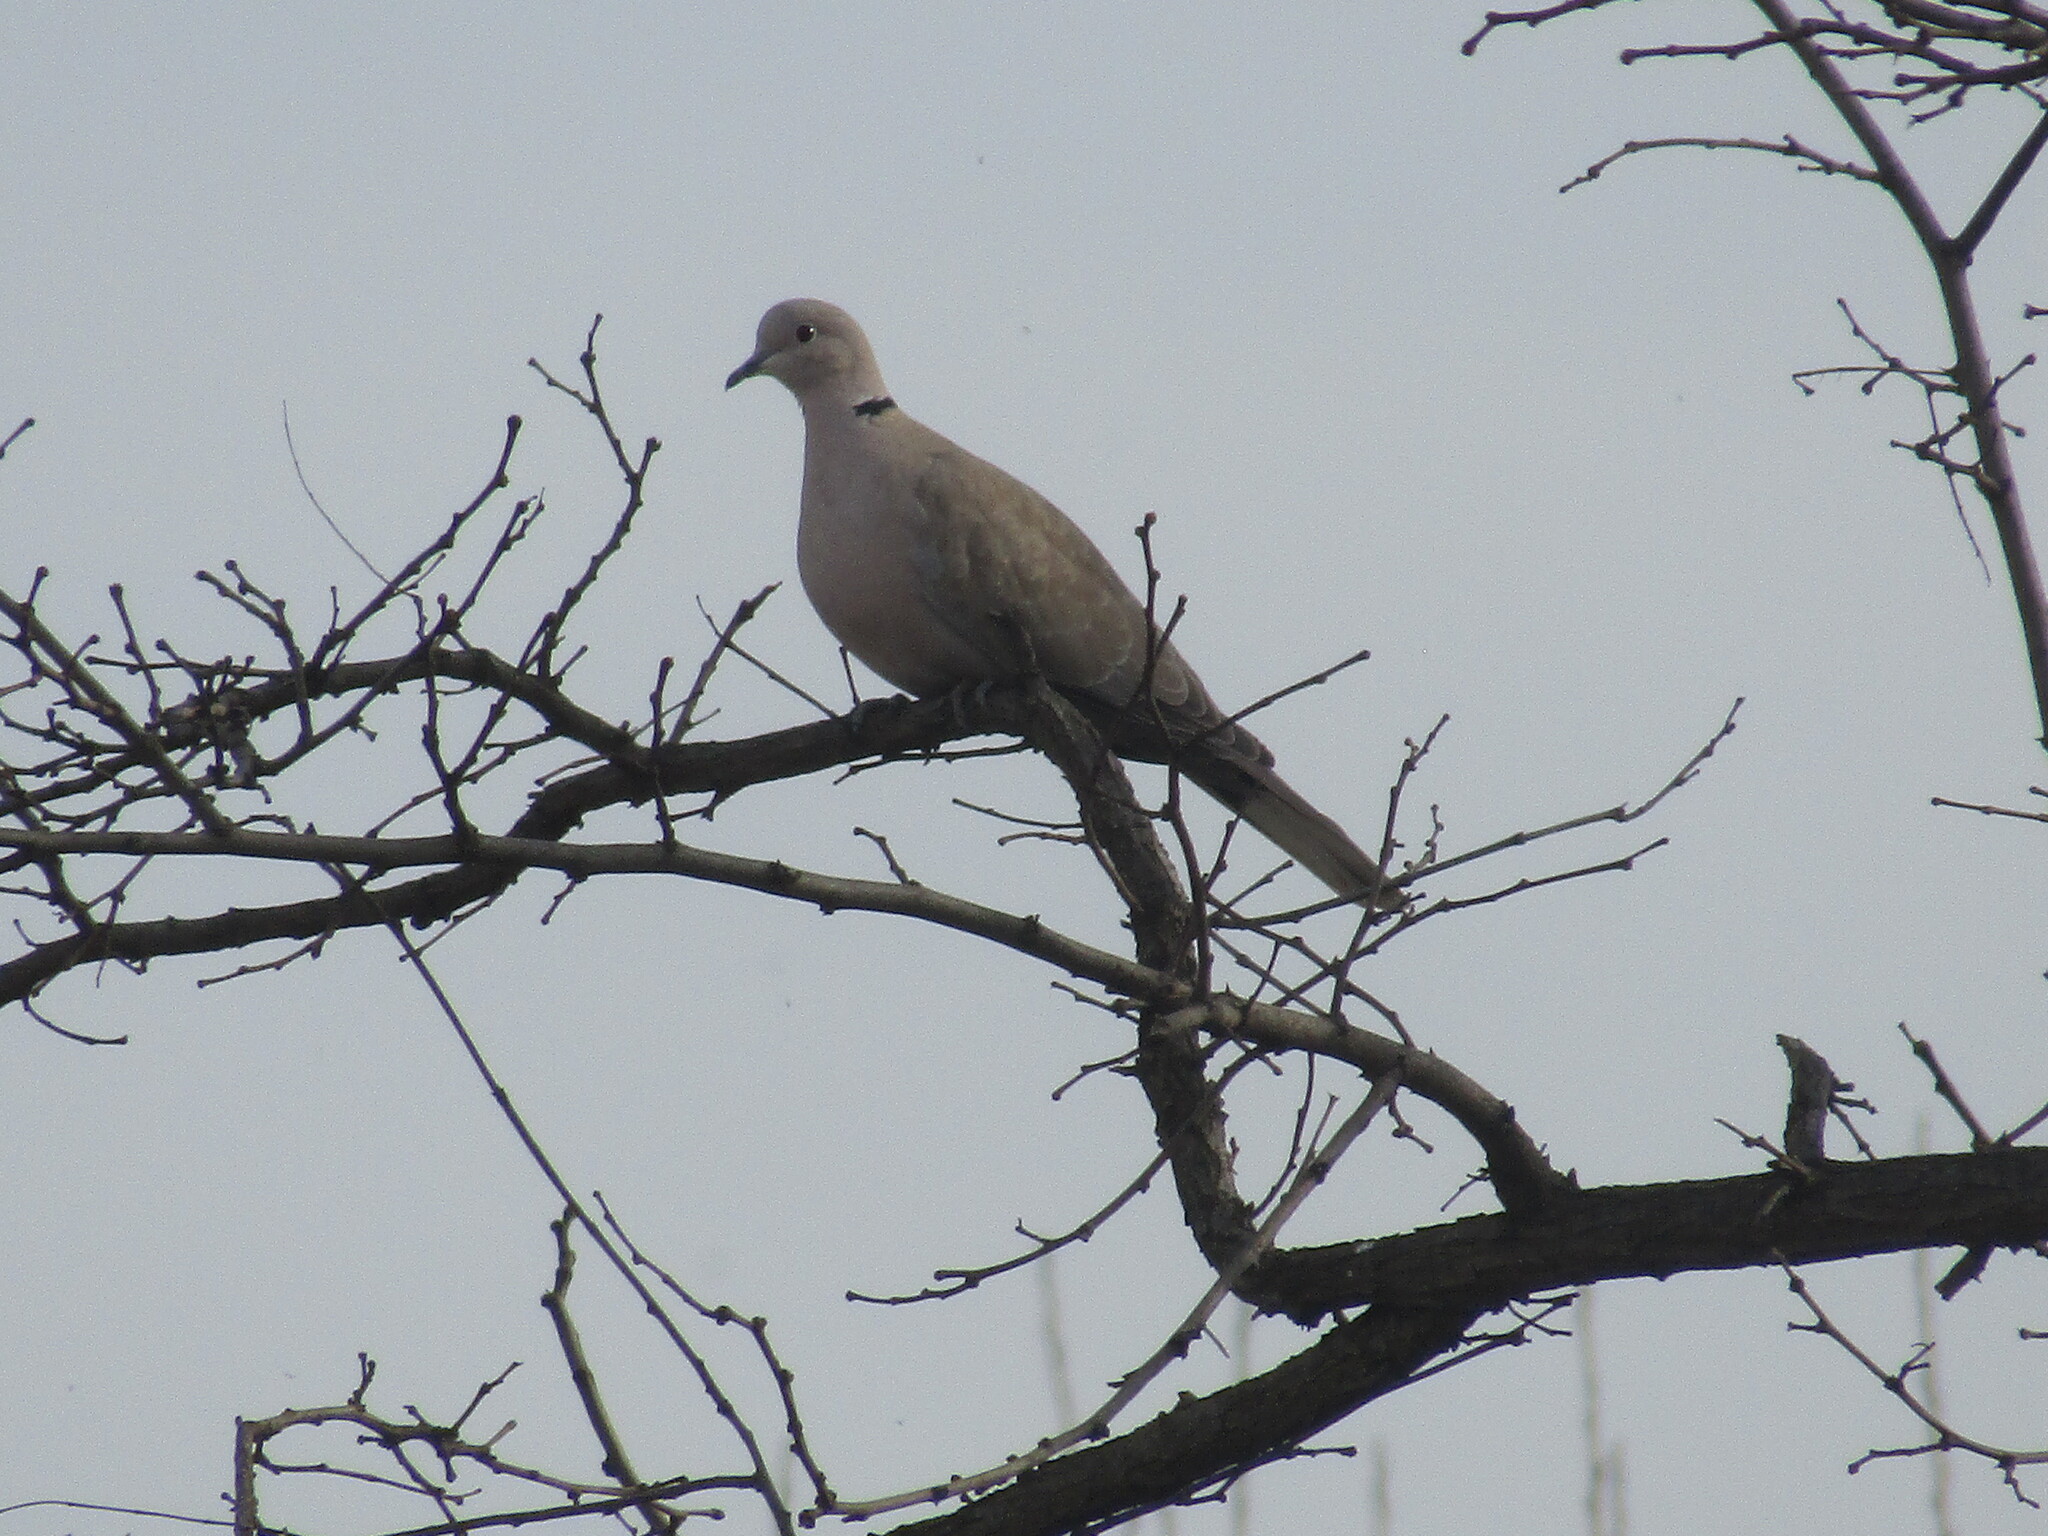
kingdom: Animalia
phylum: Chordata
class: Aves
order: Columbiformes
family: Columbidae
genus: Streptopelia
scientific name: Streptopelia decaocto
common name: Eurasian collared dove
